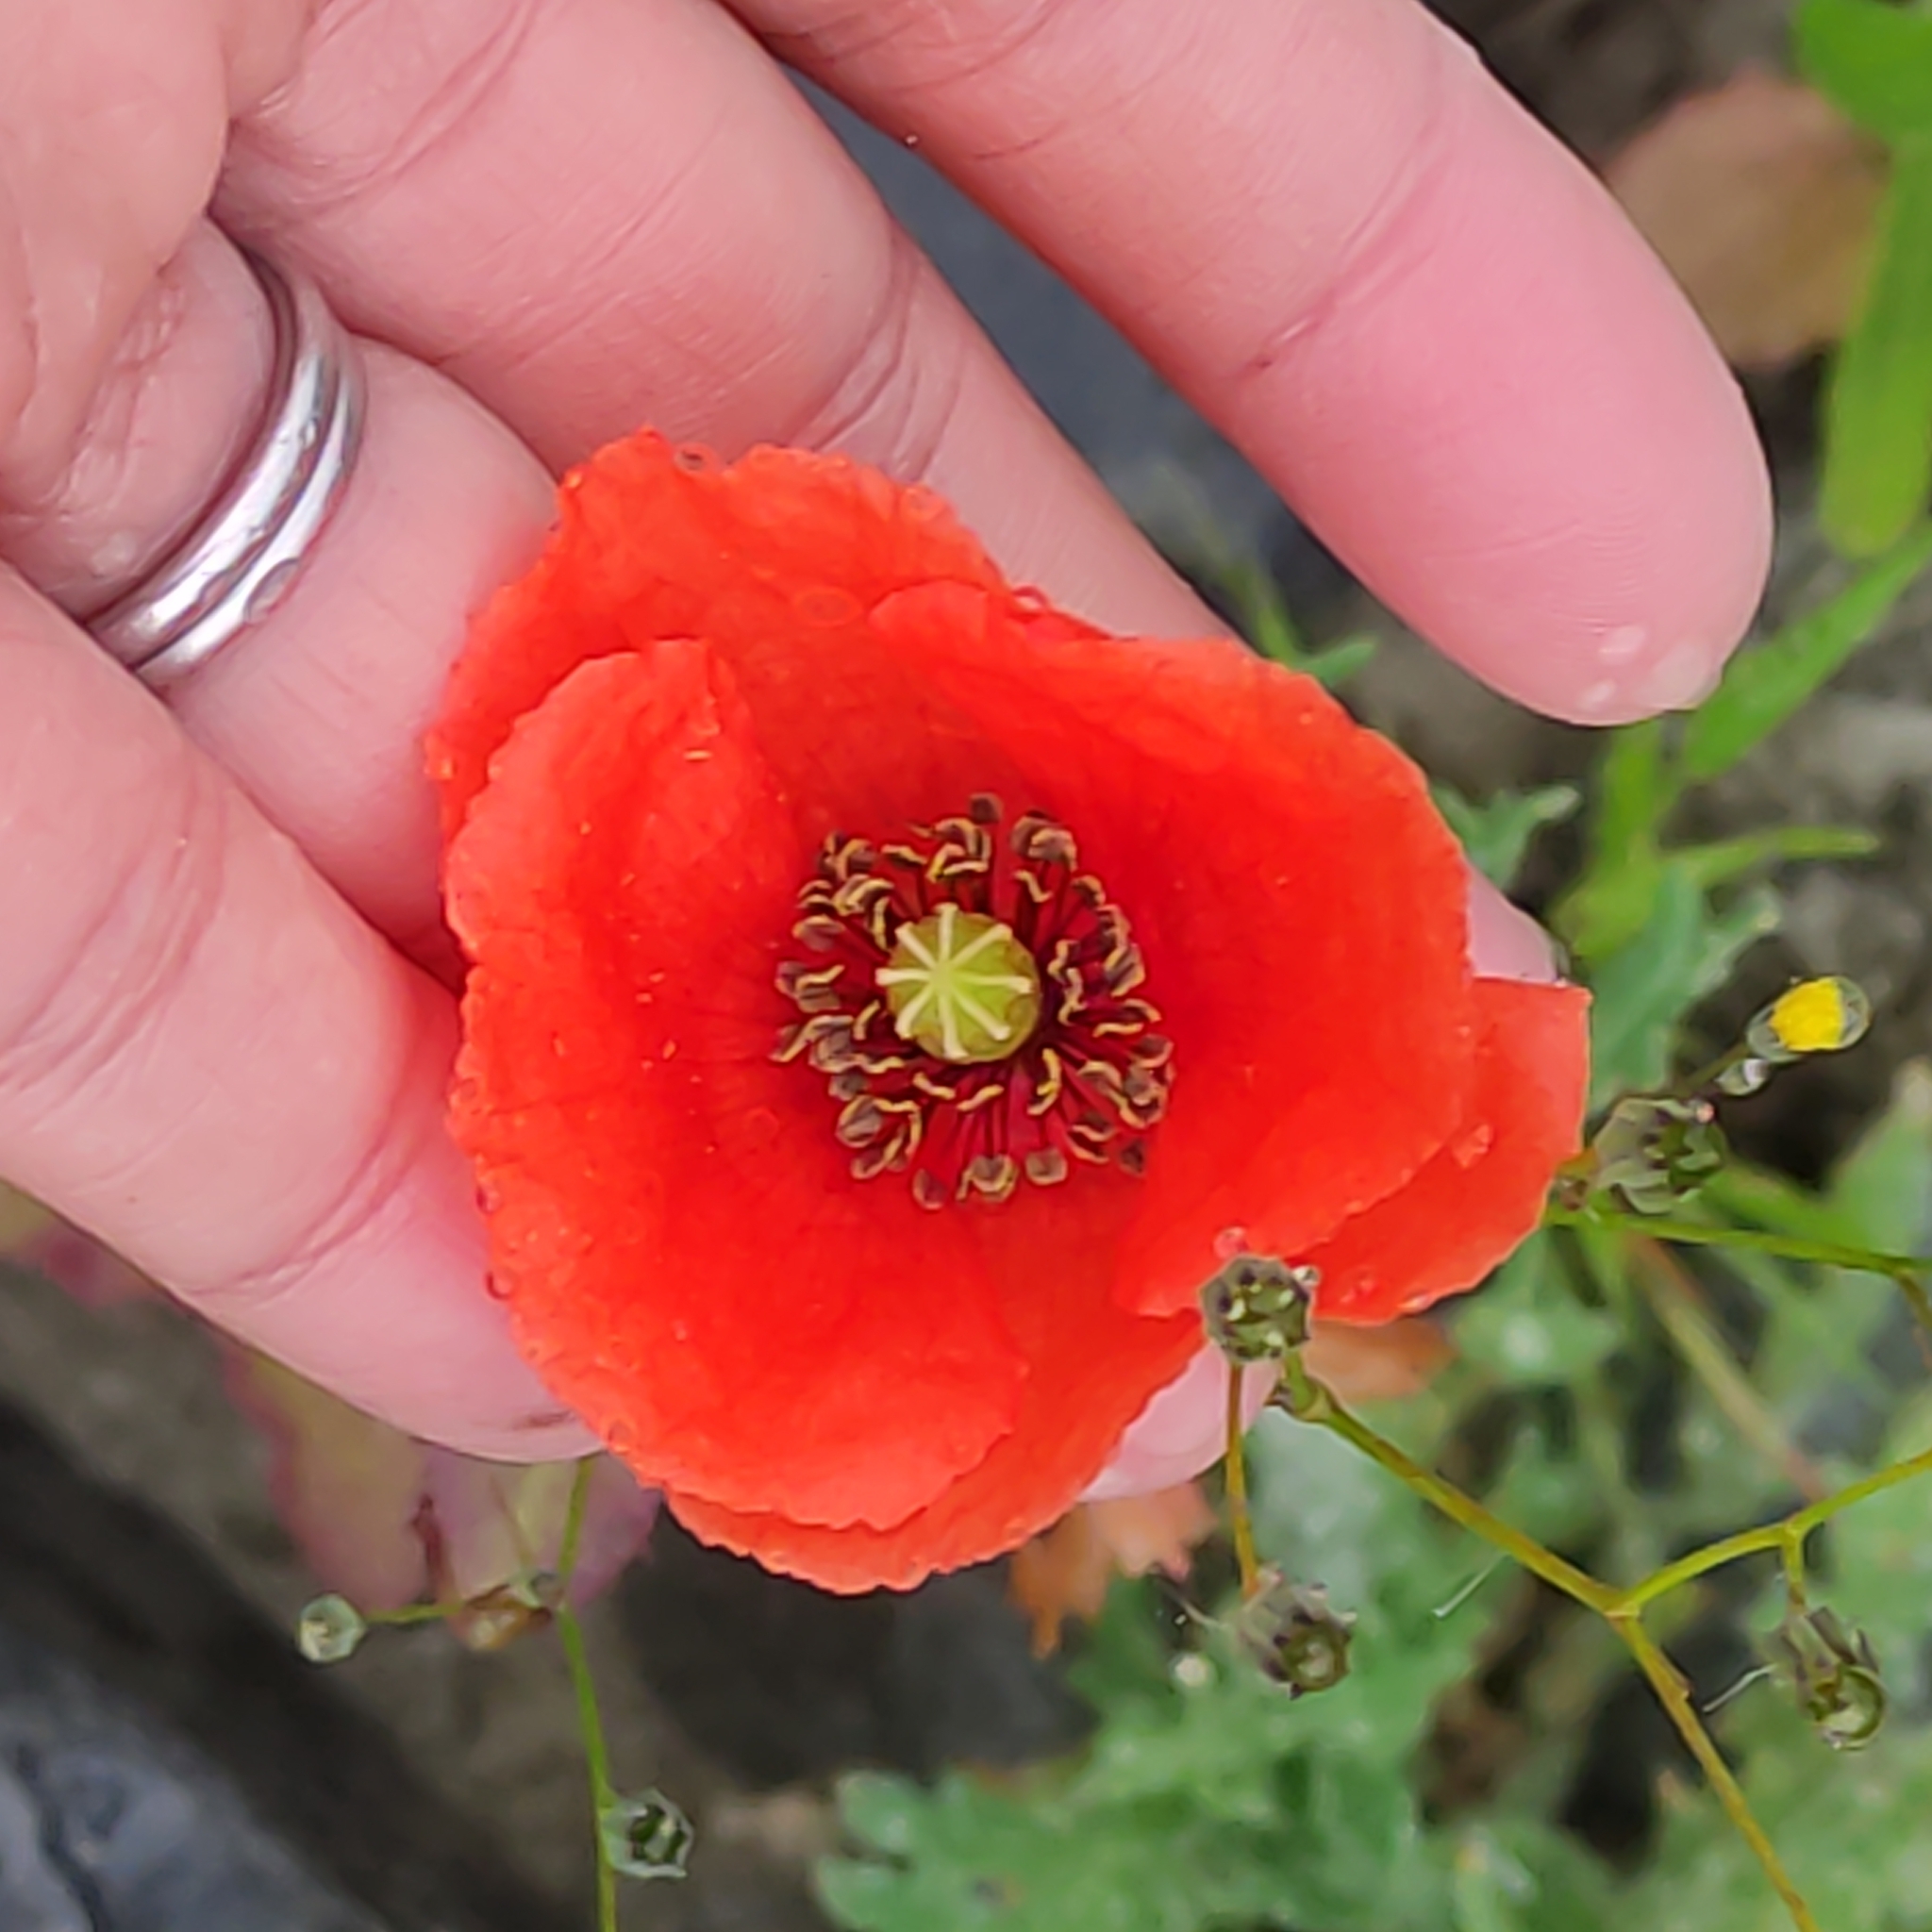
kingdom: Plantae
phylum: Tracheophyta
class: Magnoliopsida
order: Ranunculales
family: Papaveraceae
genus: Eschscholzia
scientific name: Eschscholzia californica
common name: California poppy
